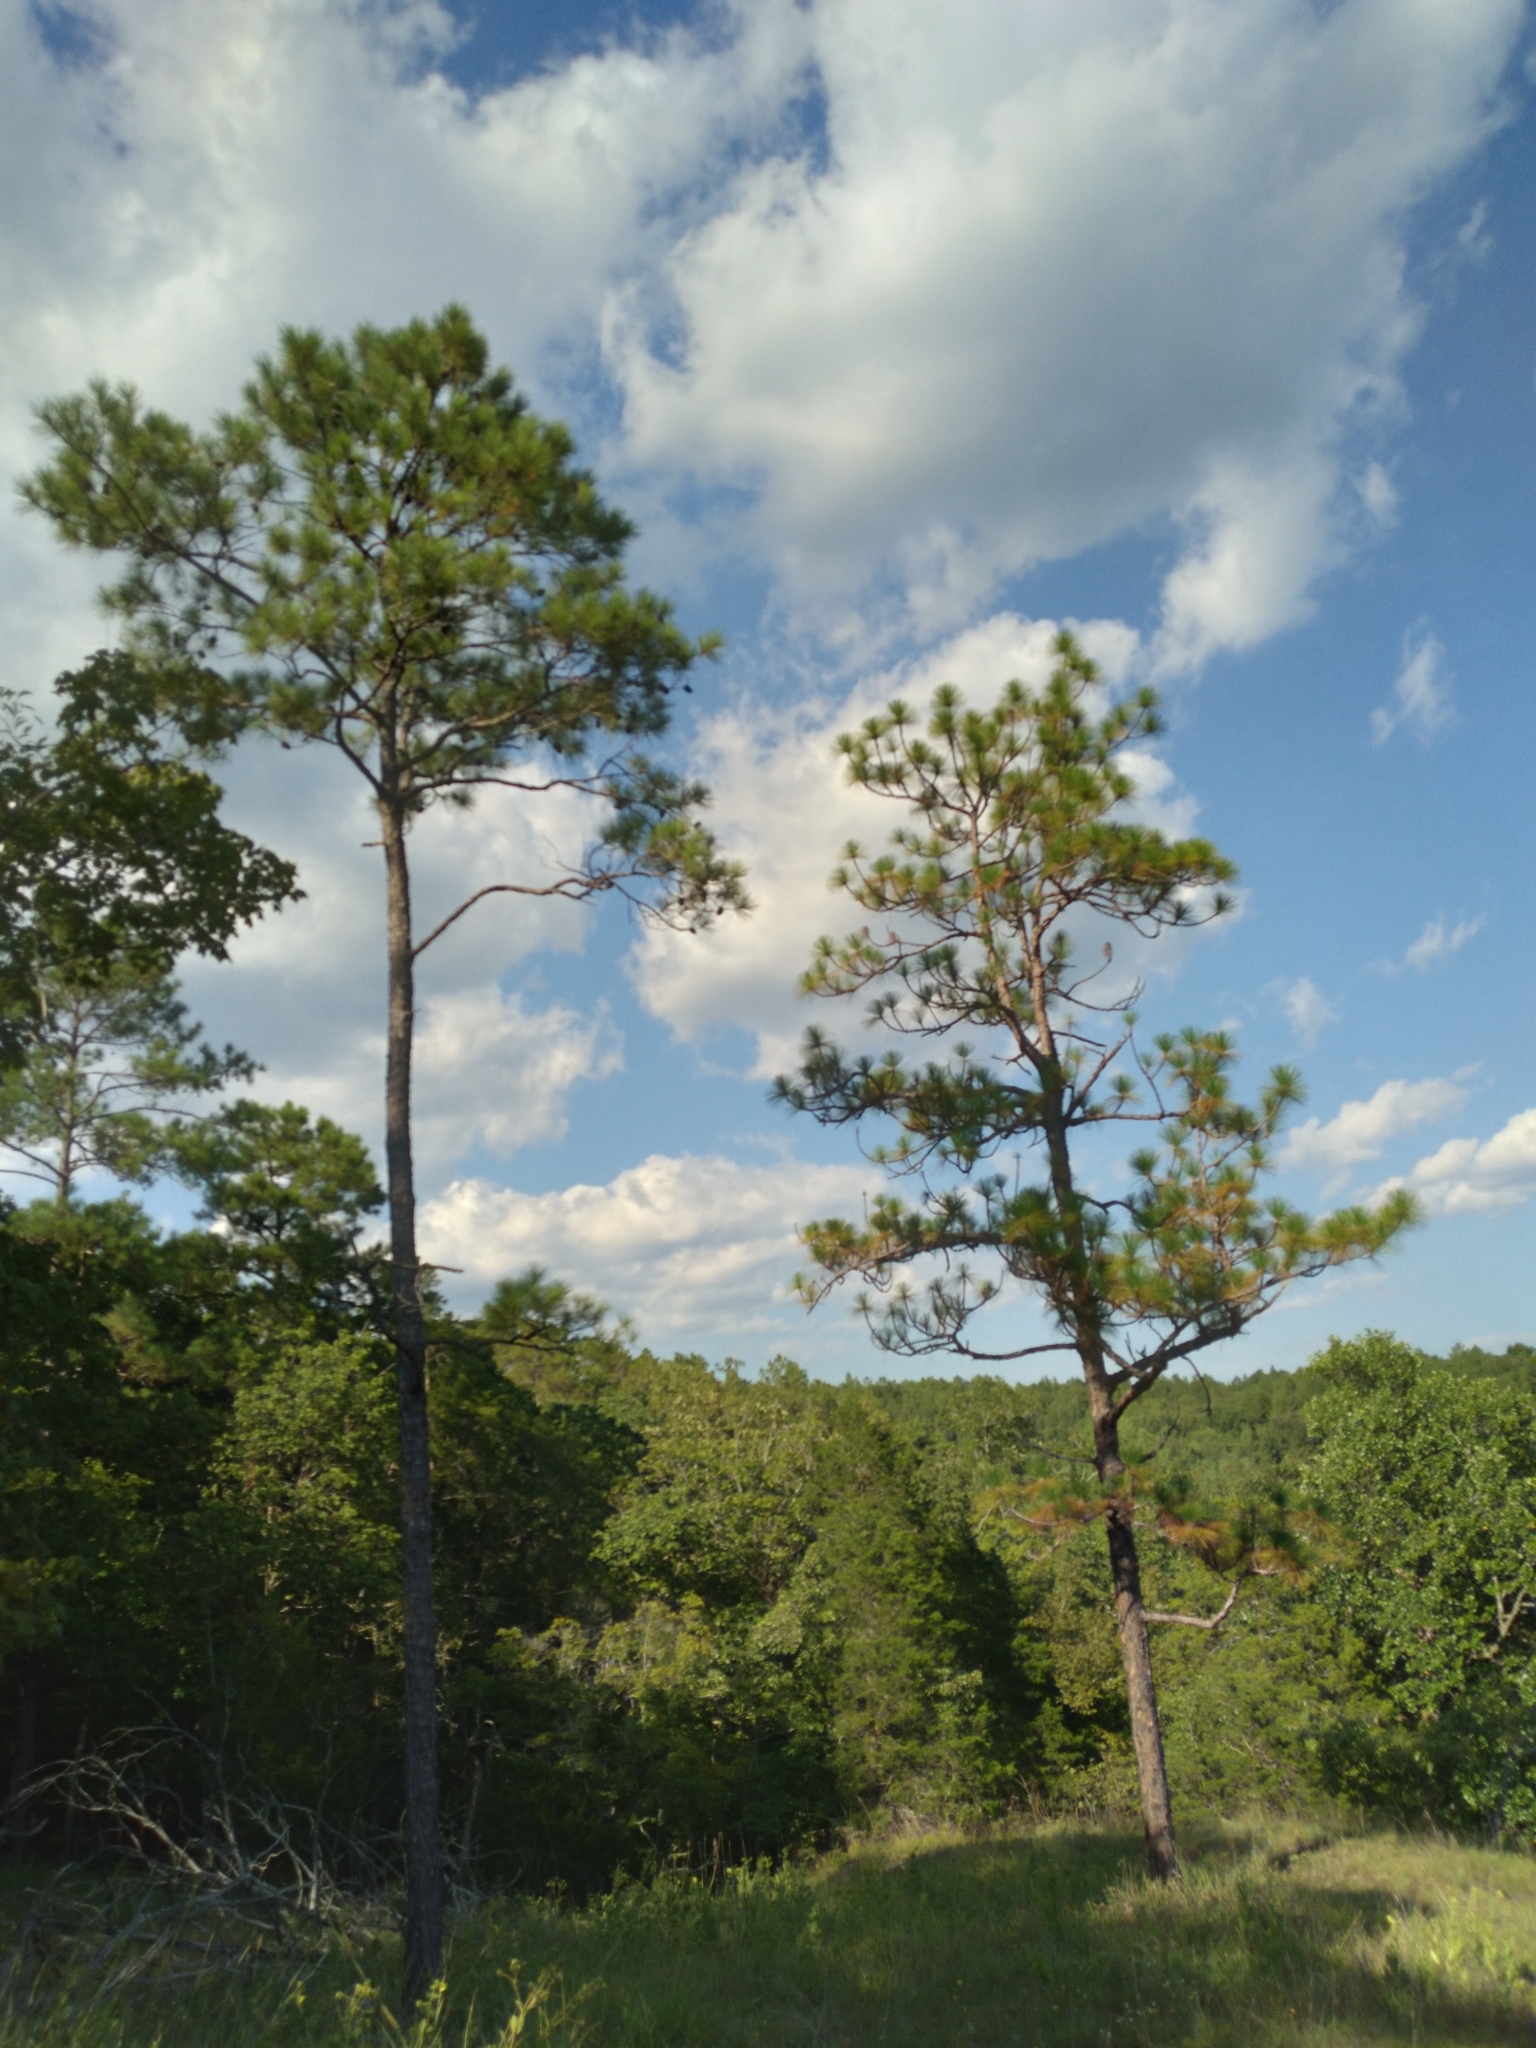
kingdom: Plantae
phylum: Tracheophyta
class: Pinopsida
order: Pinales
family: Pinaceae
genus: Pinus
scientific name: Pinus palustris
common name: Longleaf pine
